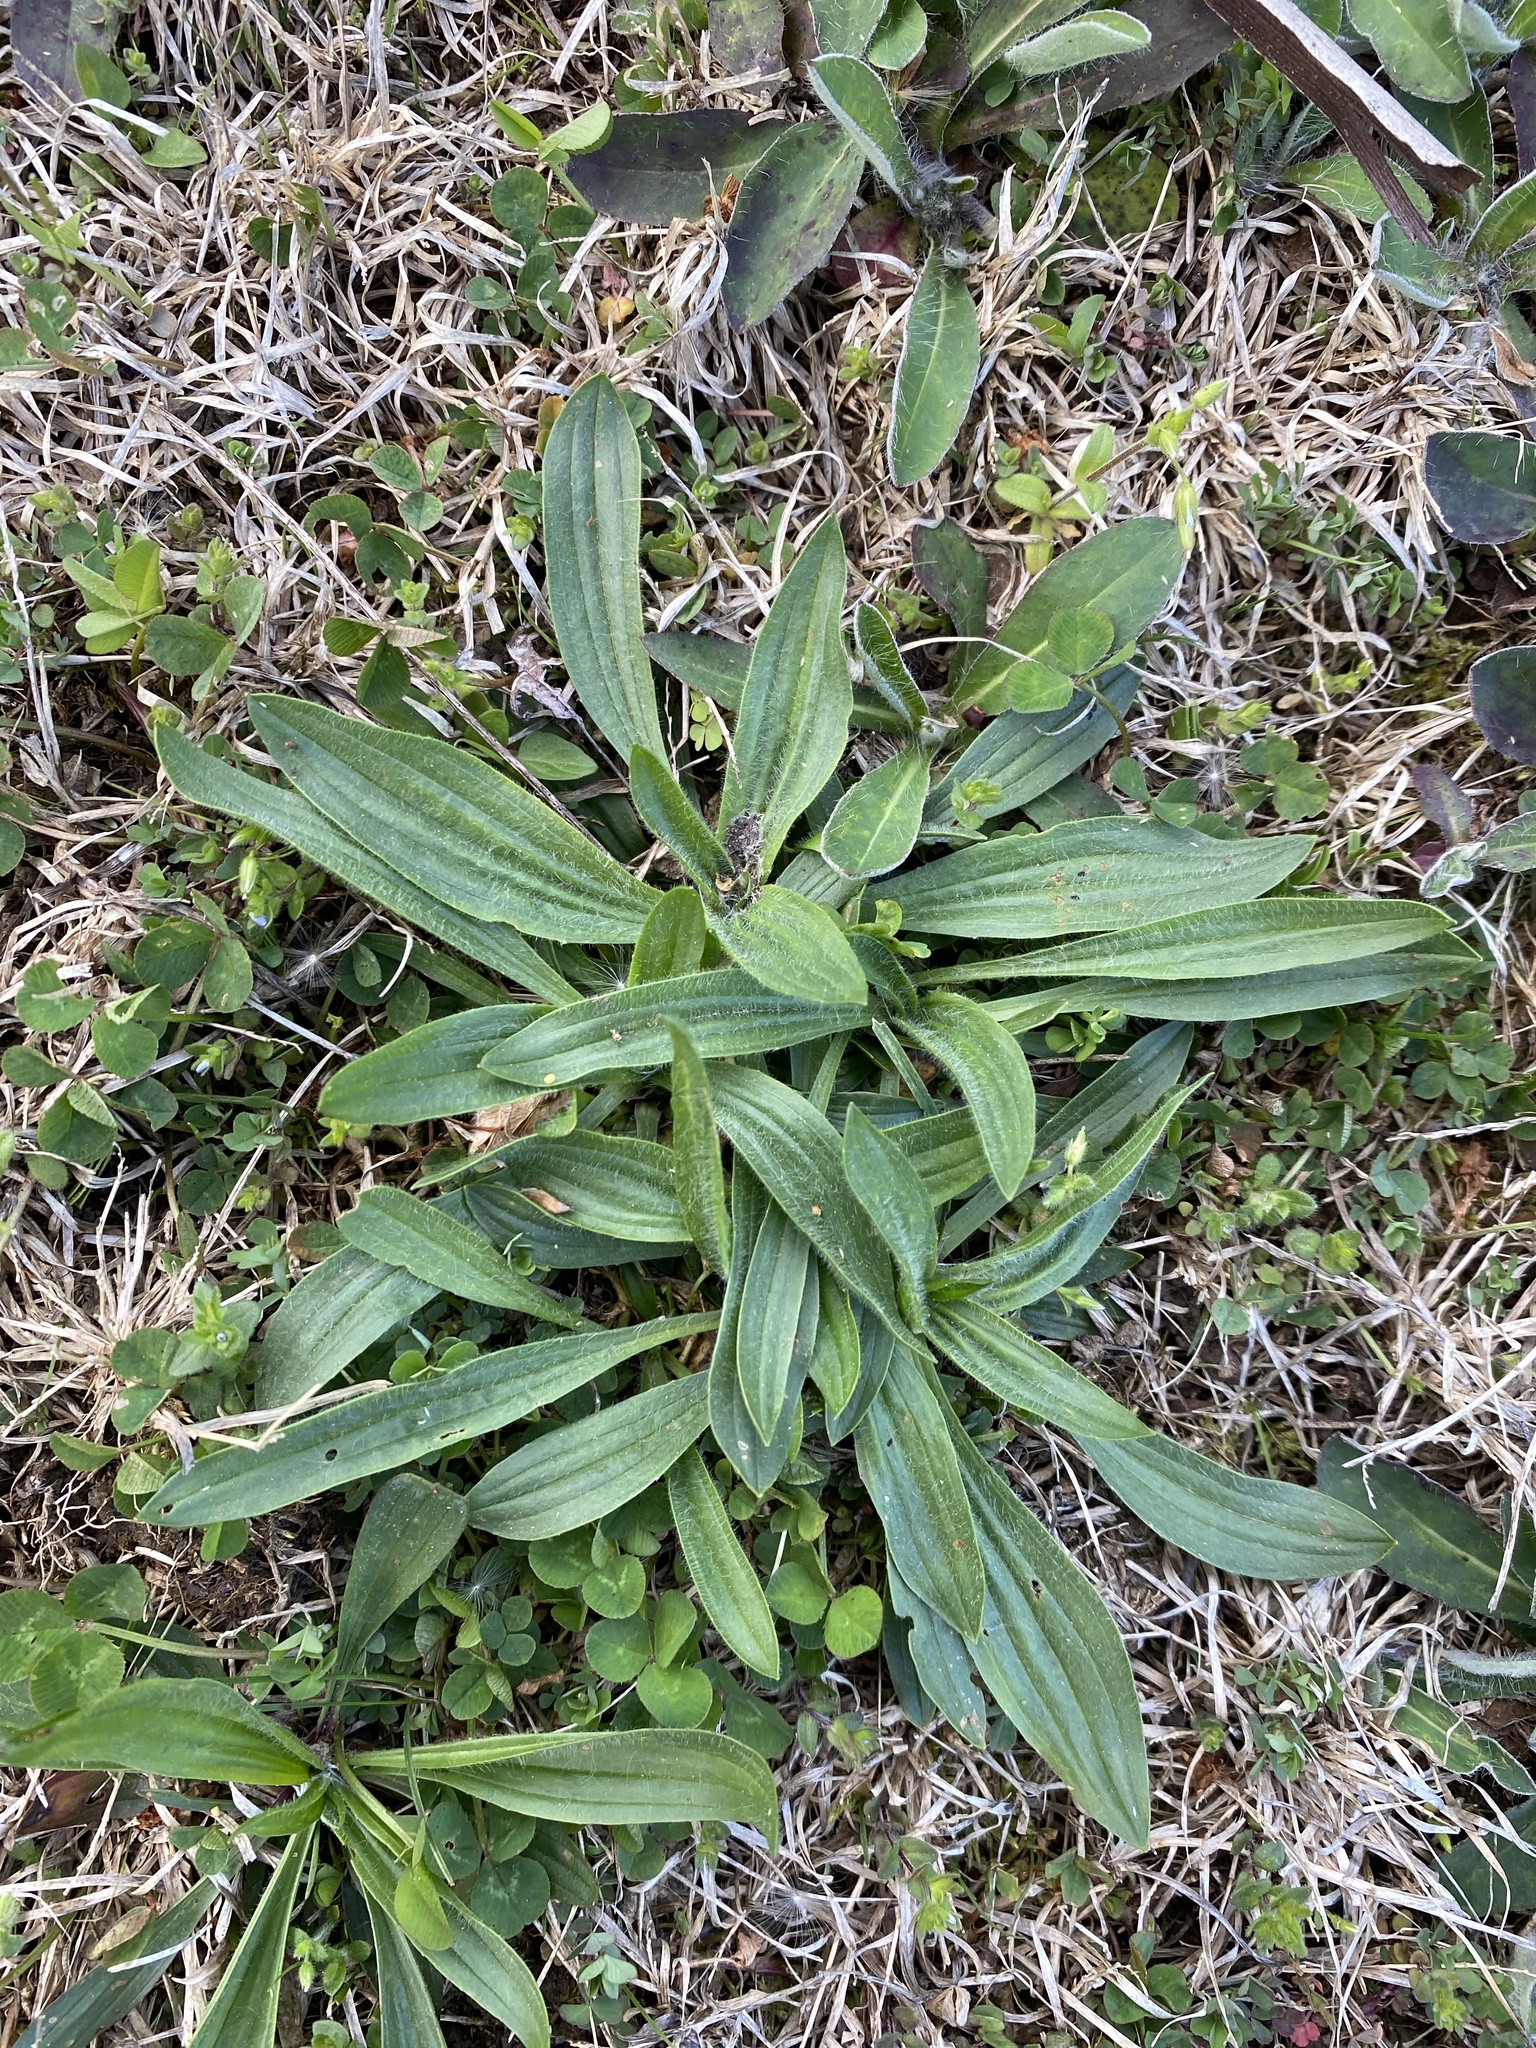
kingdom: Plantae
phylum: Tracheophyta
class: Magnoliopsida
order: Lamiales
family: Plantaginaceae
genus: Plantago
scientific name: Plantago lanceolata
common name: Ribwort plantain
